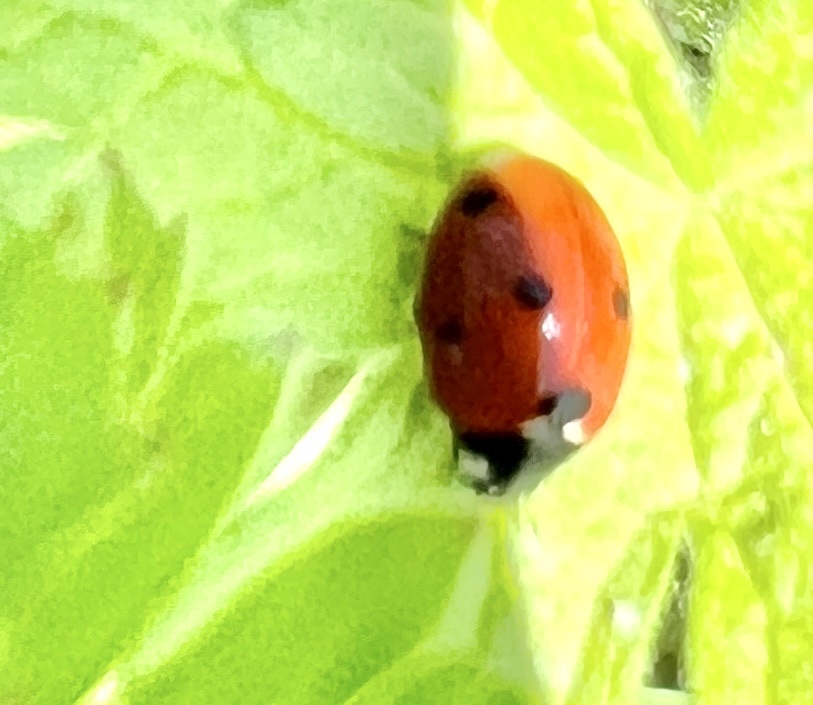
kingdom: Animalia
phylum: Arthropoda
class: Insecta
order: Coleoptera
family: Coccinellidae
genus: Coccinella
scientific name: Coccinella septempunctata
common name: Sevenspotted lady beetle
